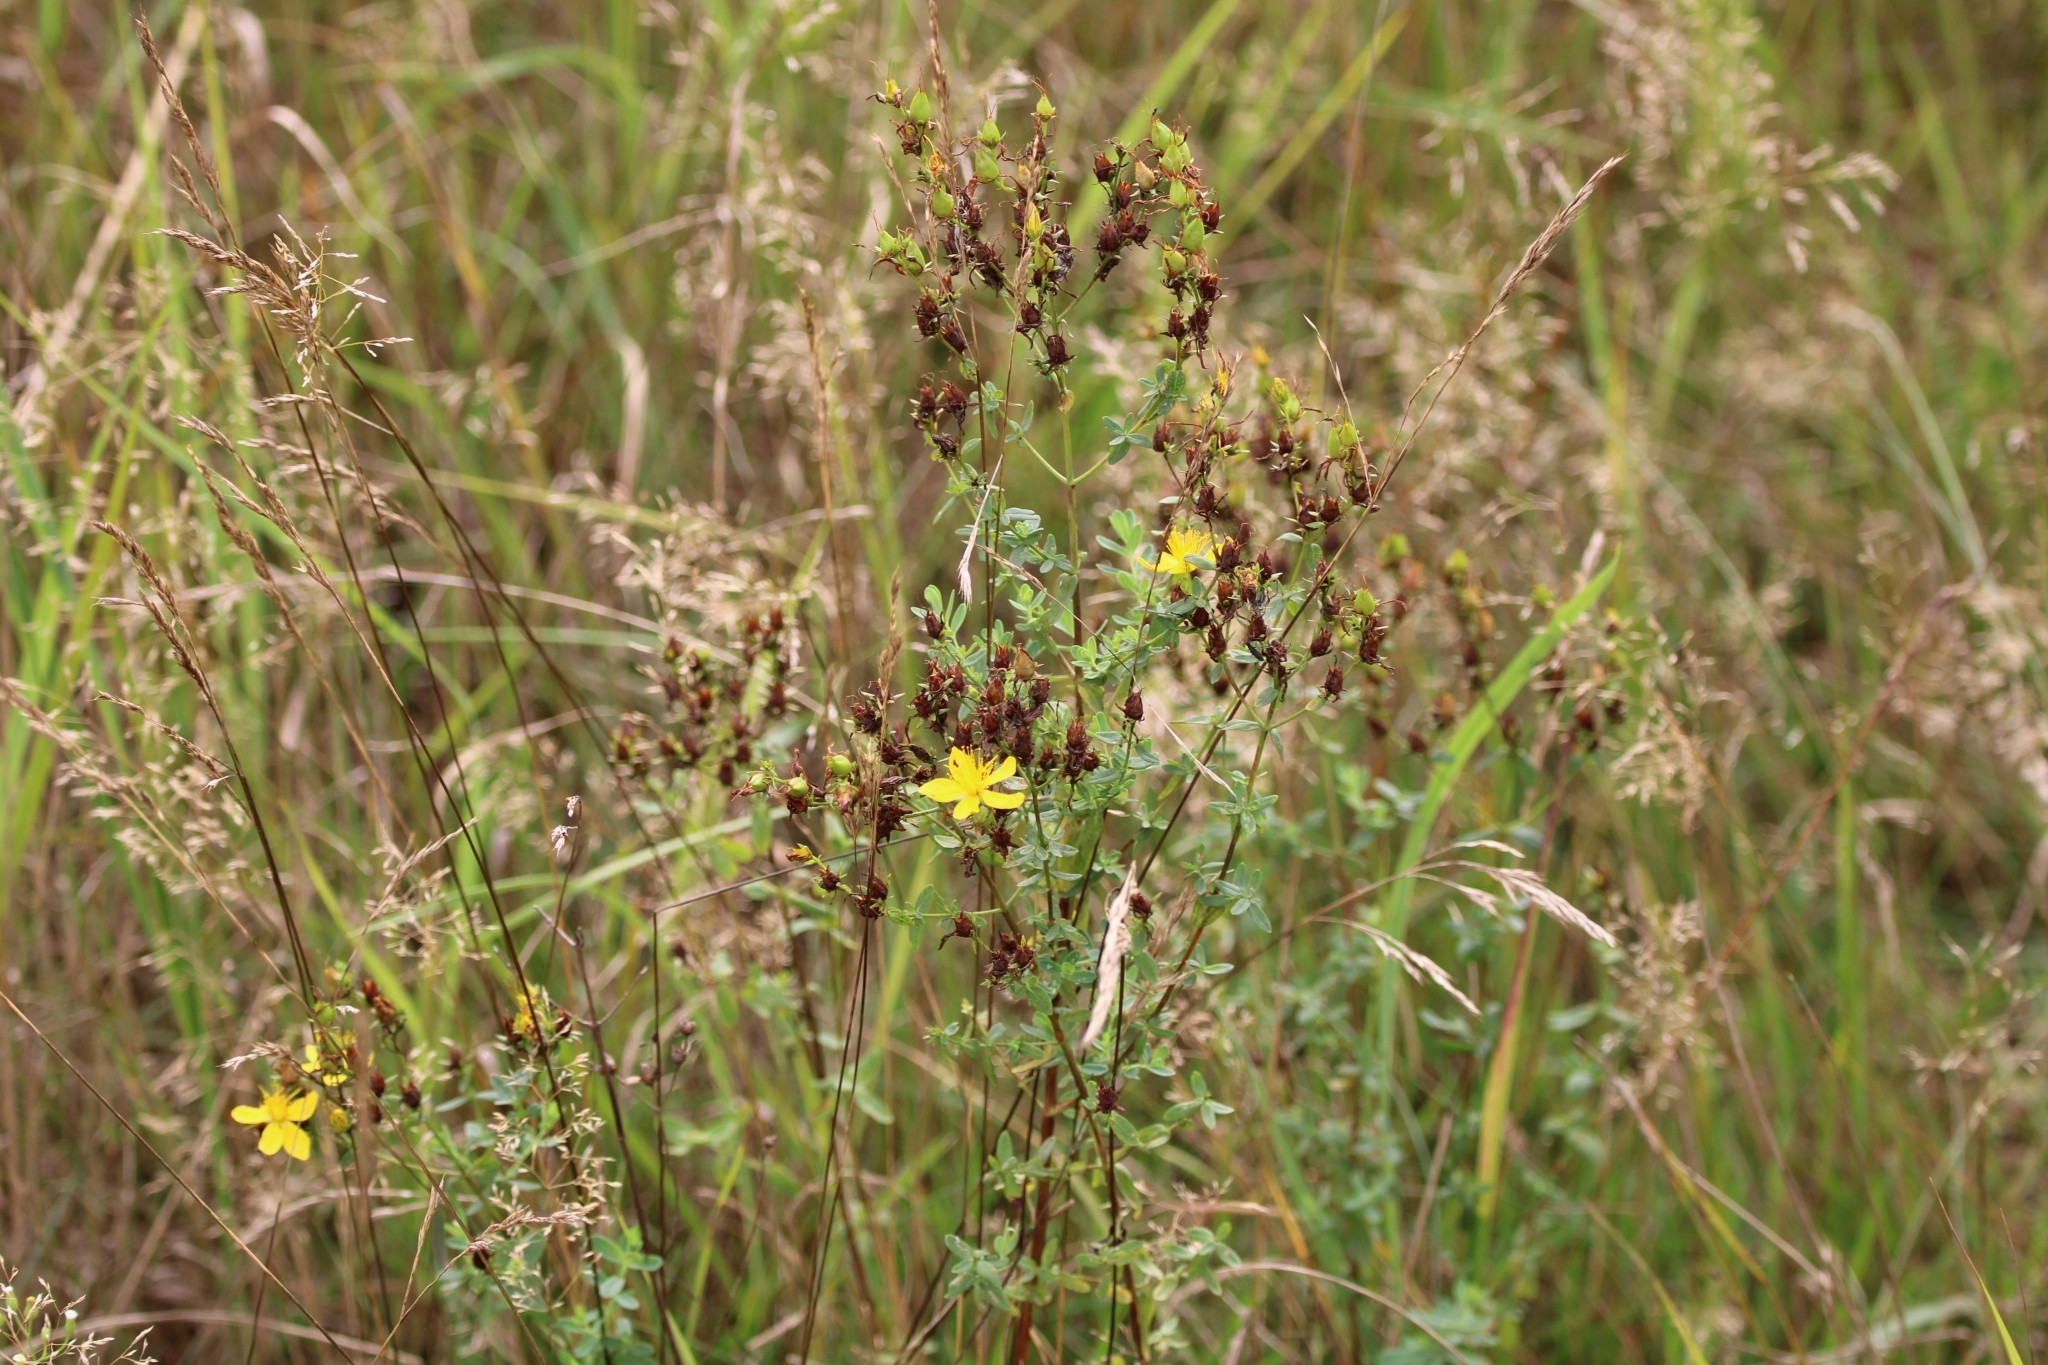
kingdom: Plantae
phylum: Tracheophyta
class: Magnoliopsida
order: Malpighiales
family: Hypericaceae
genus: Hypericum
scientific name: Hypericum perforatum
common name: Common st. johnswort
